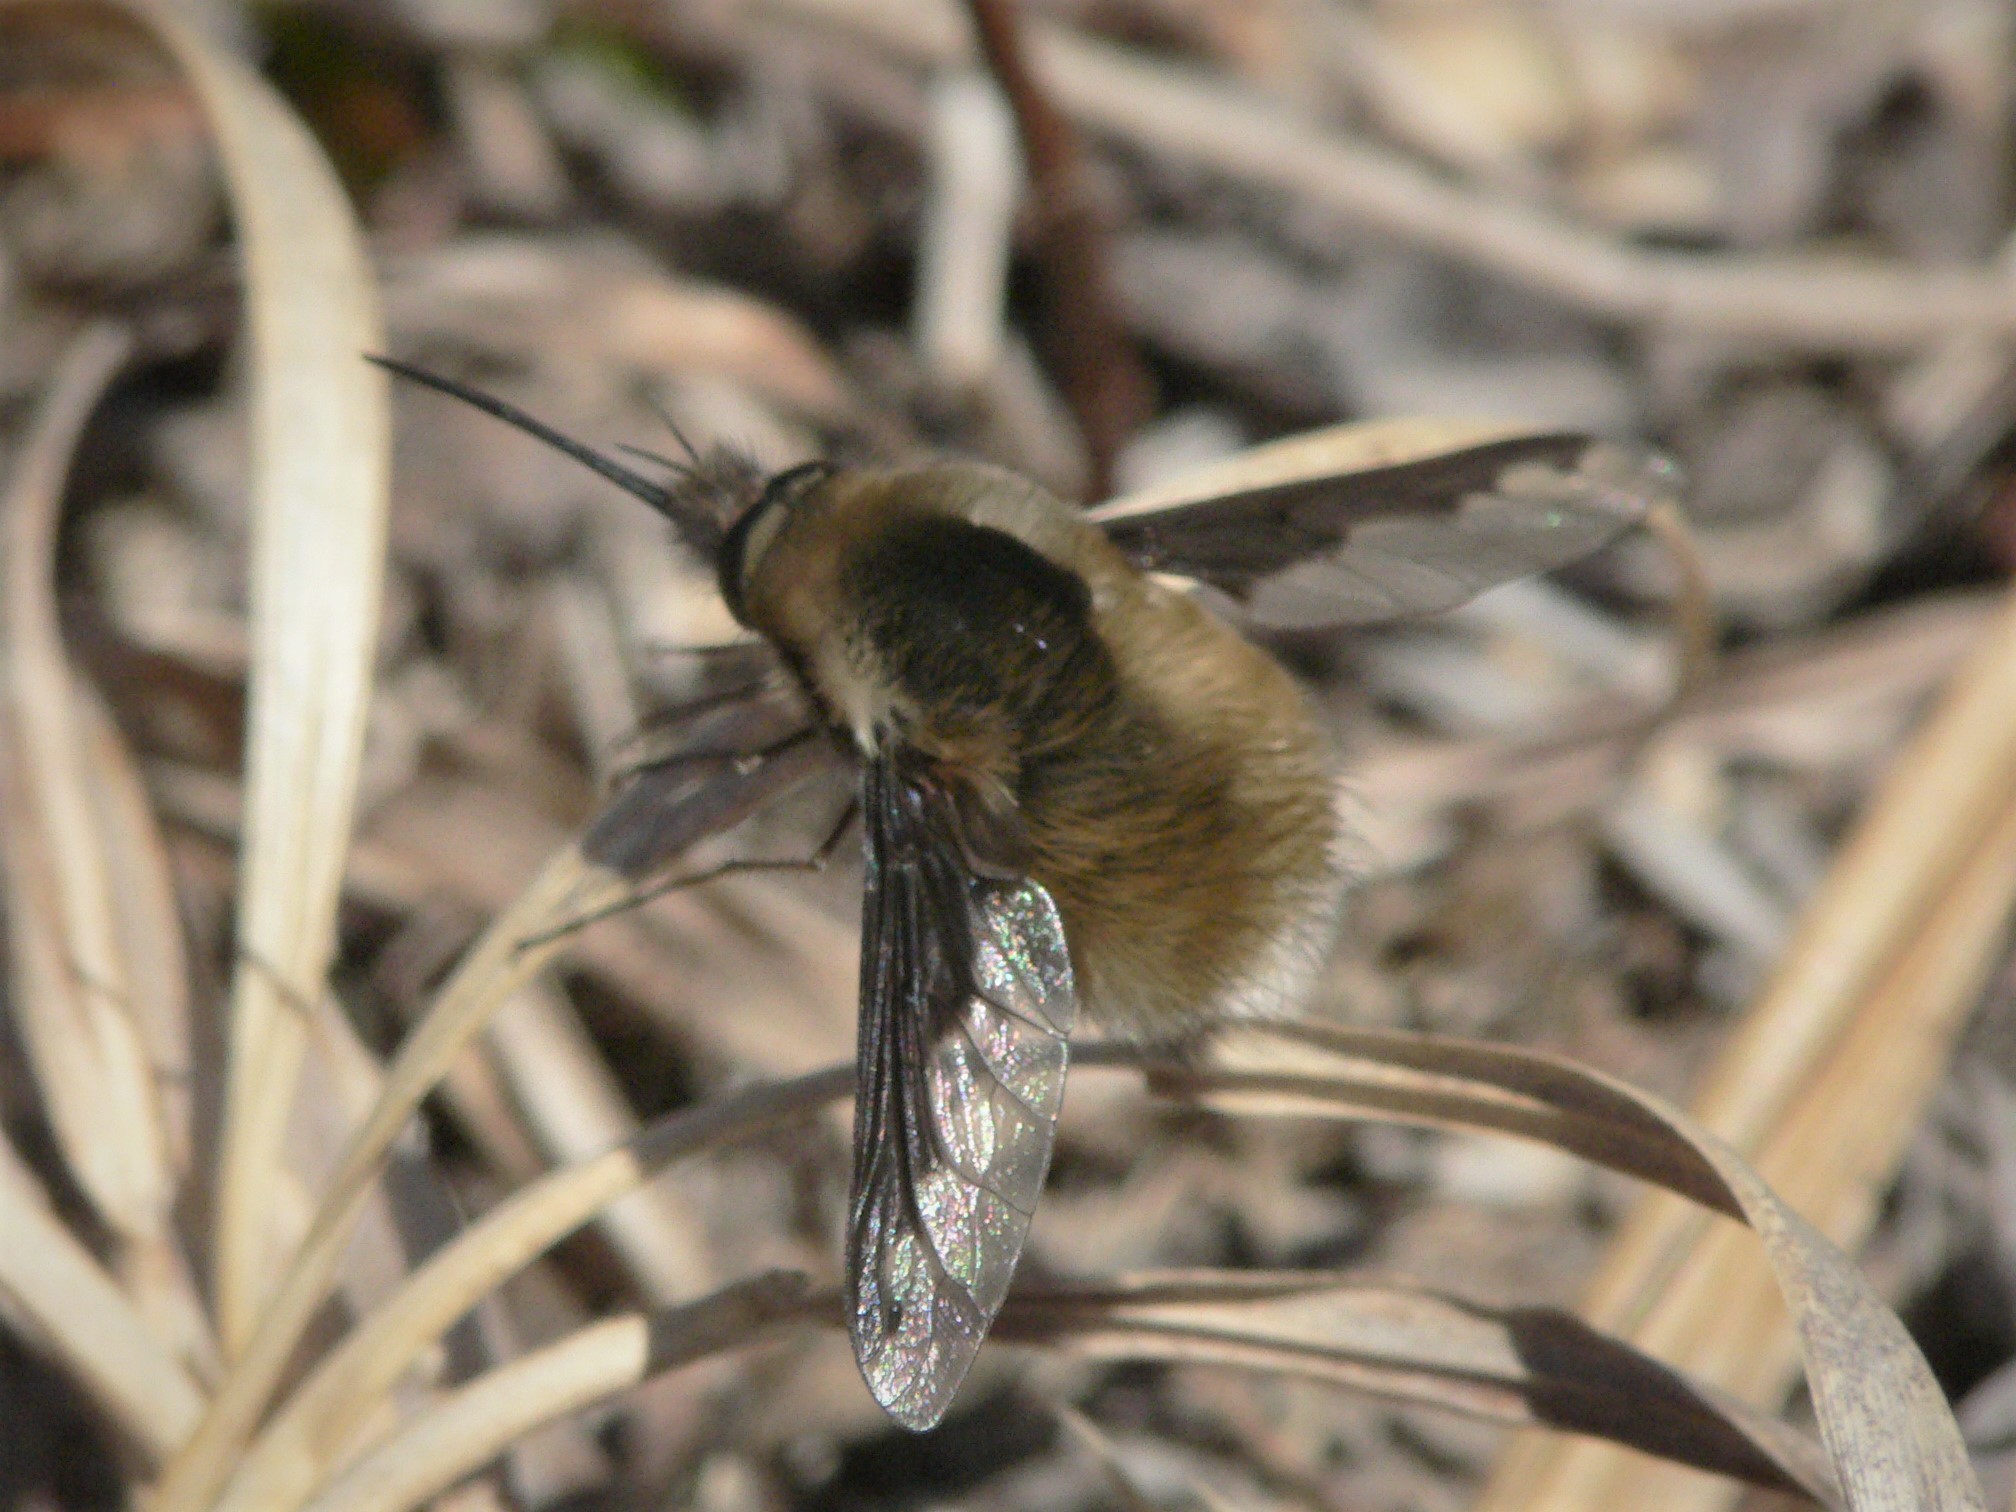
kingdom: Animalia
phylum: Arthropoda
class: Insecta
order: Diptera
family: Bombyliidae
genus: Bombylius
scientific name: Bombylius major
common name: Bee fly
